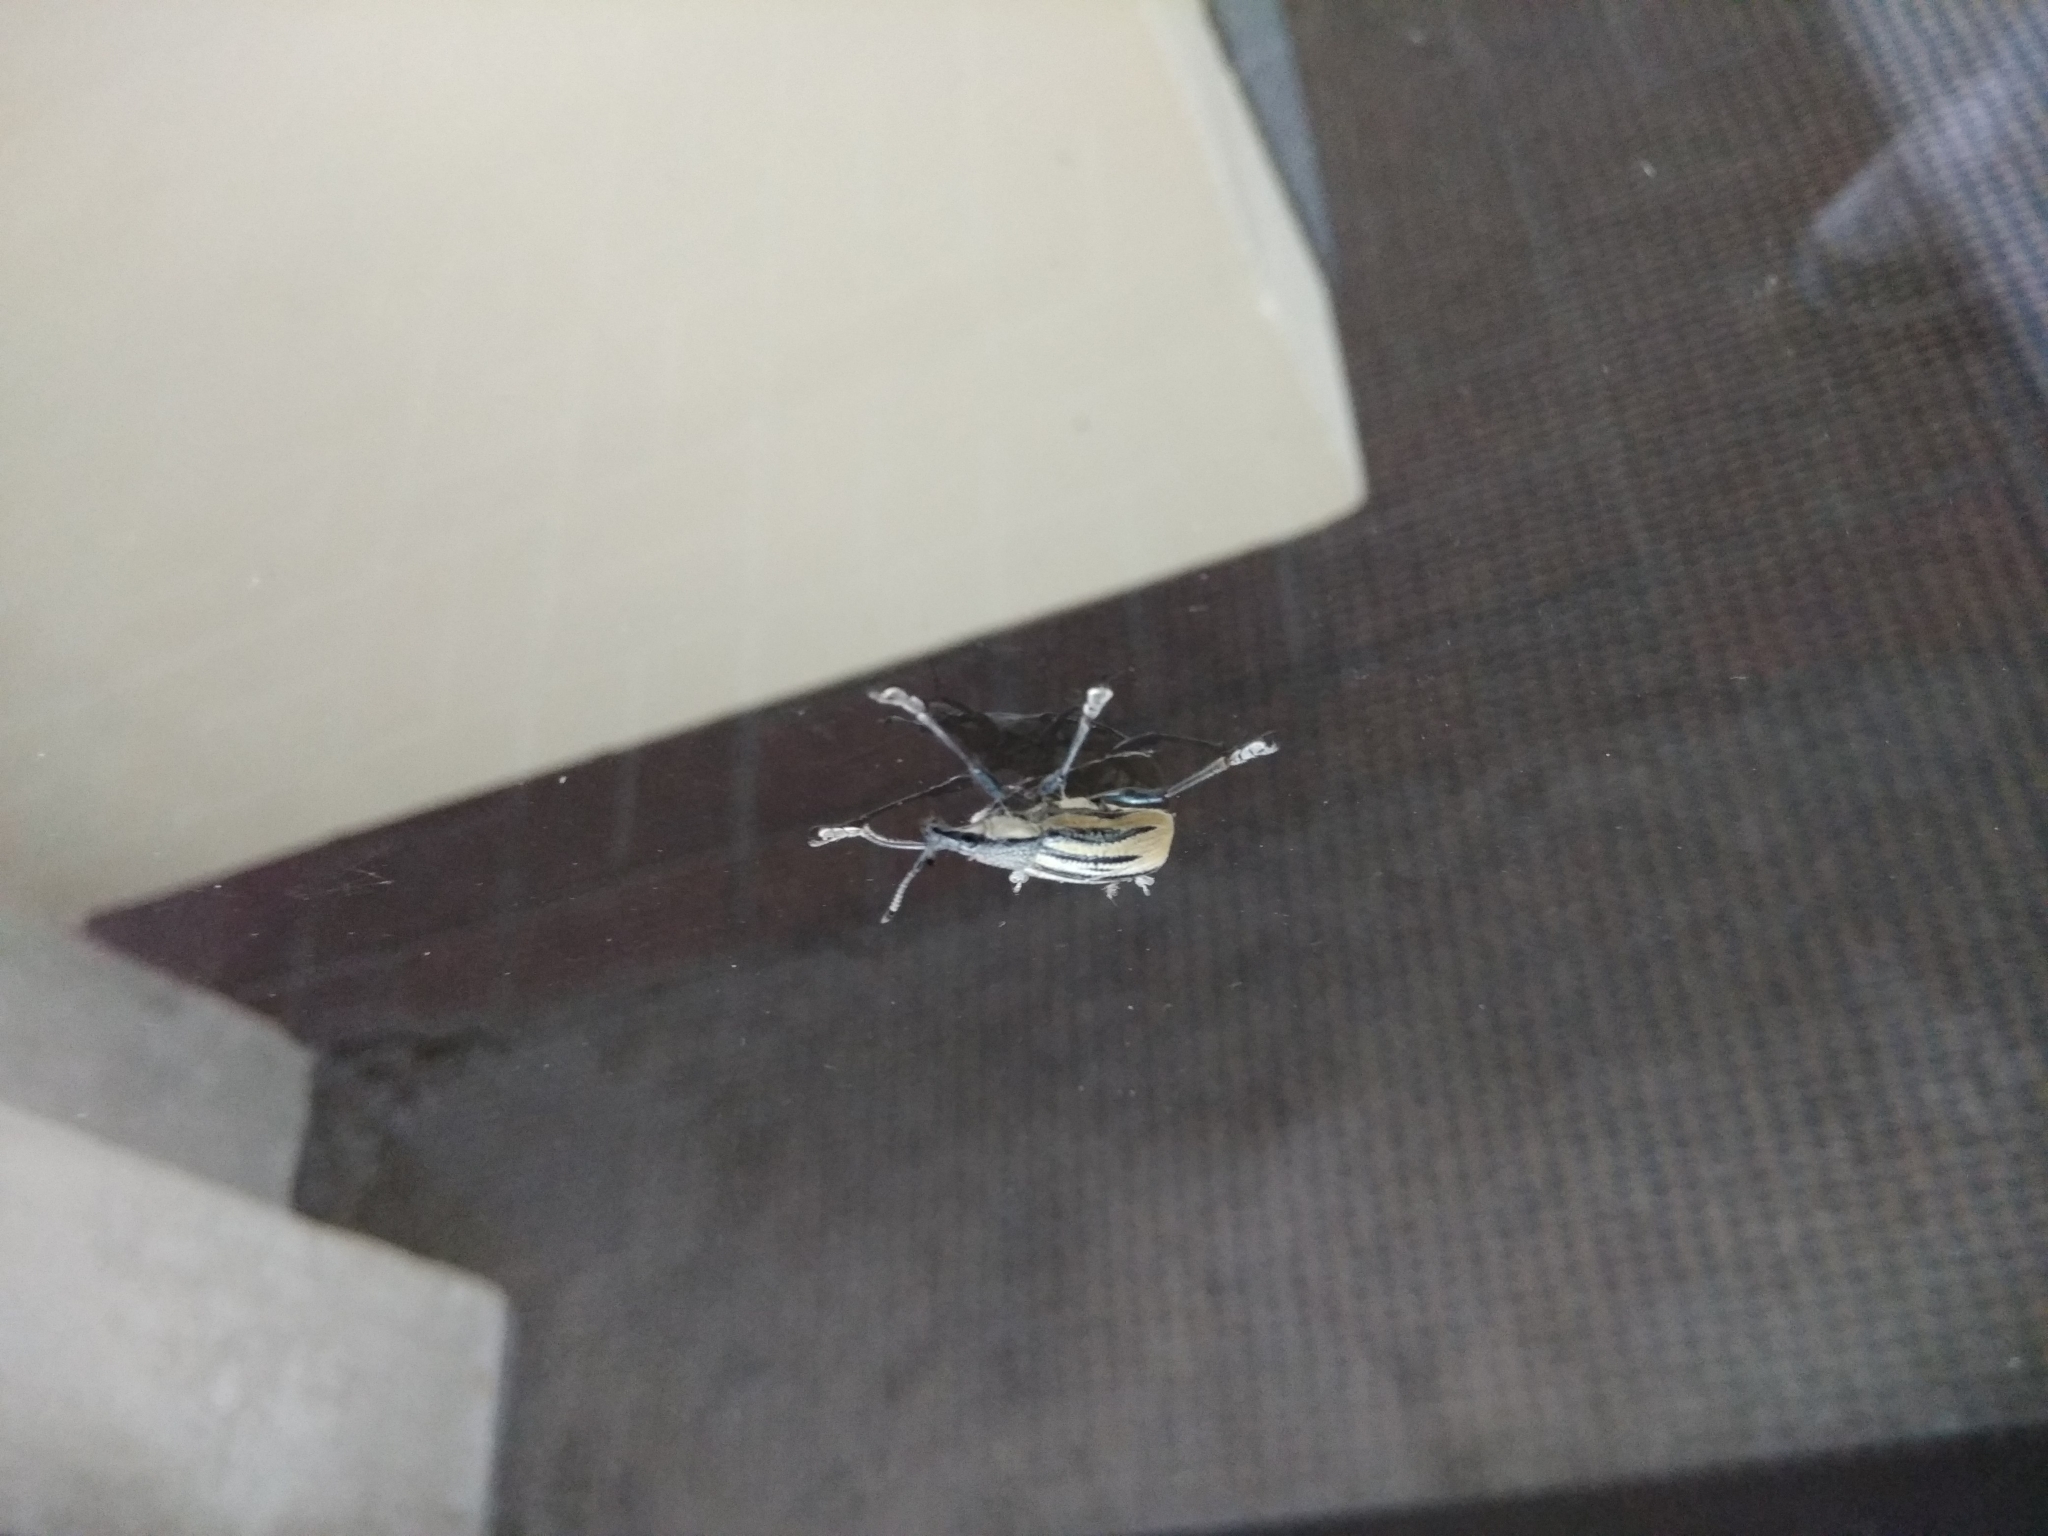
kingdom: Animalia
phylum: Arthropoda
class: Insecta
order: Coleoptera
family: Curculionidae
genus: Diaprepes
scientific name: Diaprepes abbreviatus
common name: Root weevil
